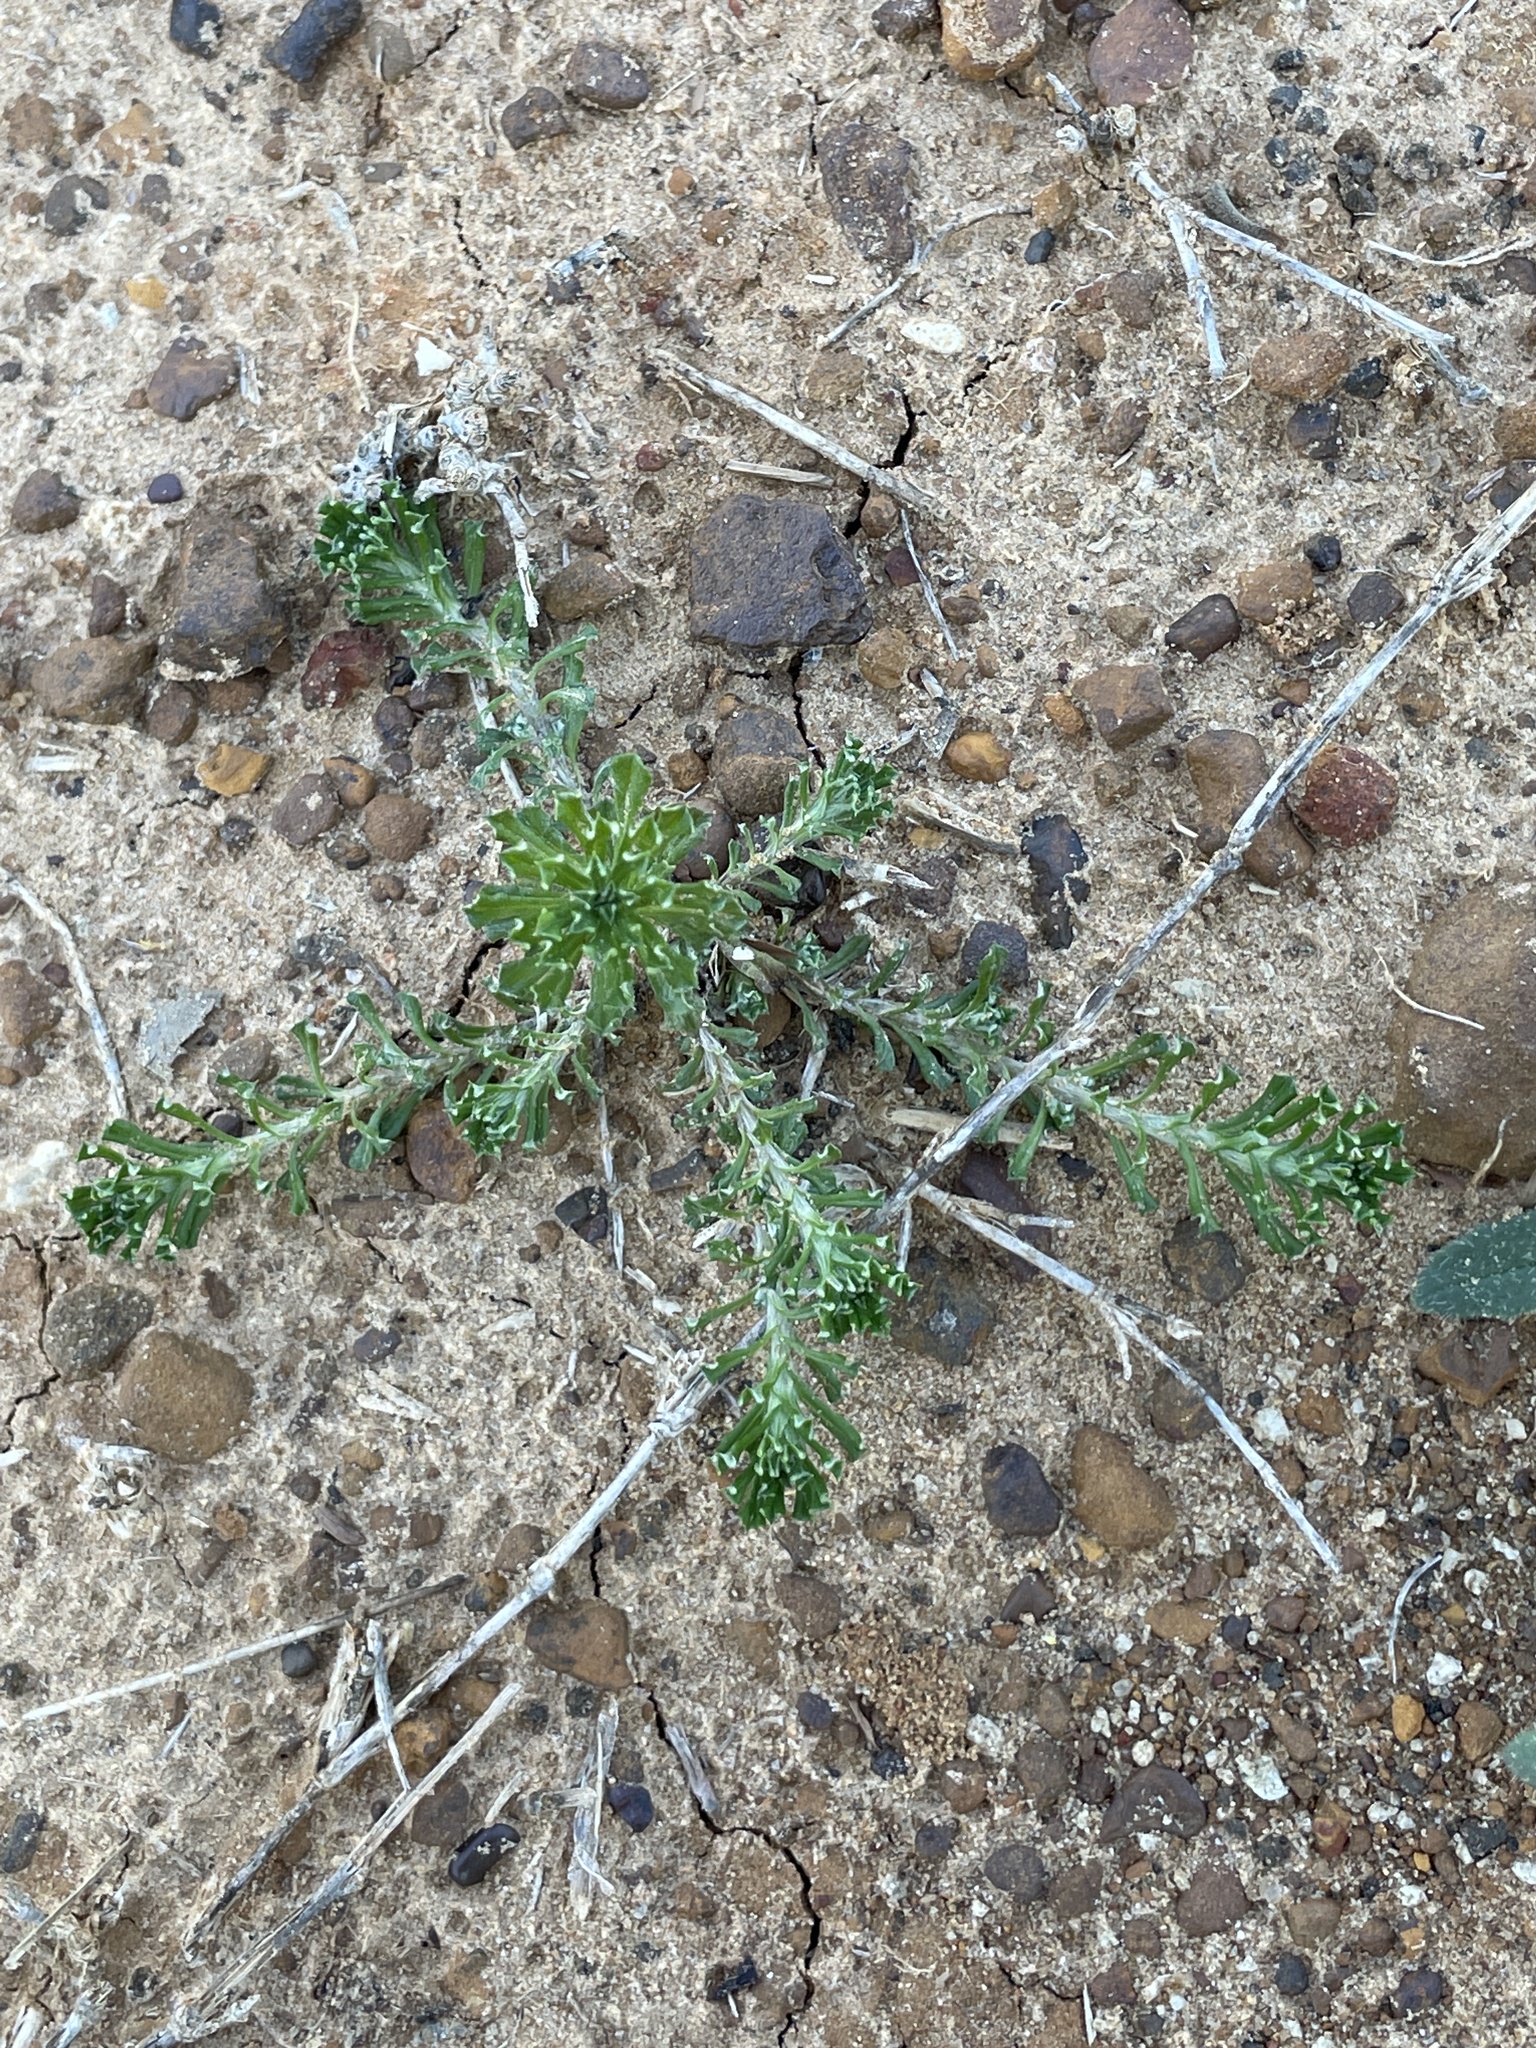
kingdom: Plantae
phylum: Tracheophyta
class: Magnoliopsida
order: Asterales
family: Asteraceae
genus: Facelis
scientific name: Facelis retusa
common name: Annual trampweed
